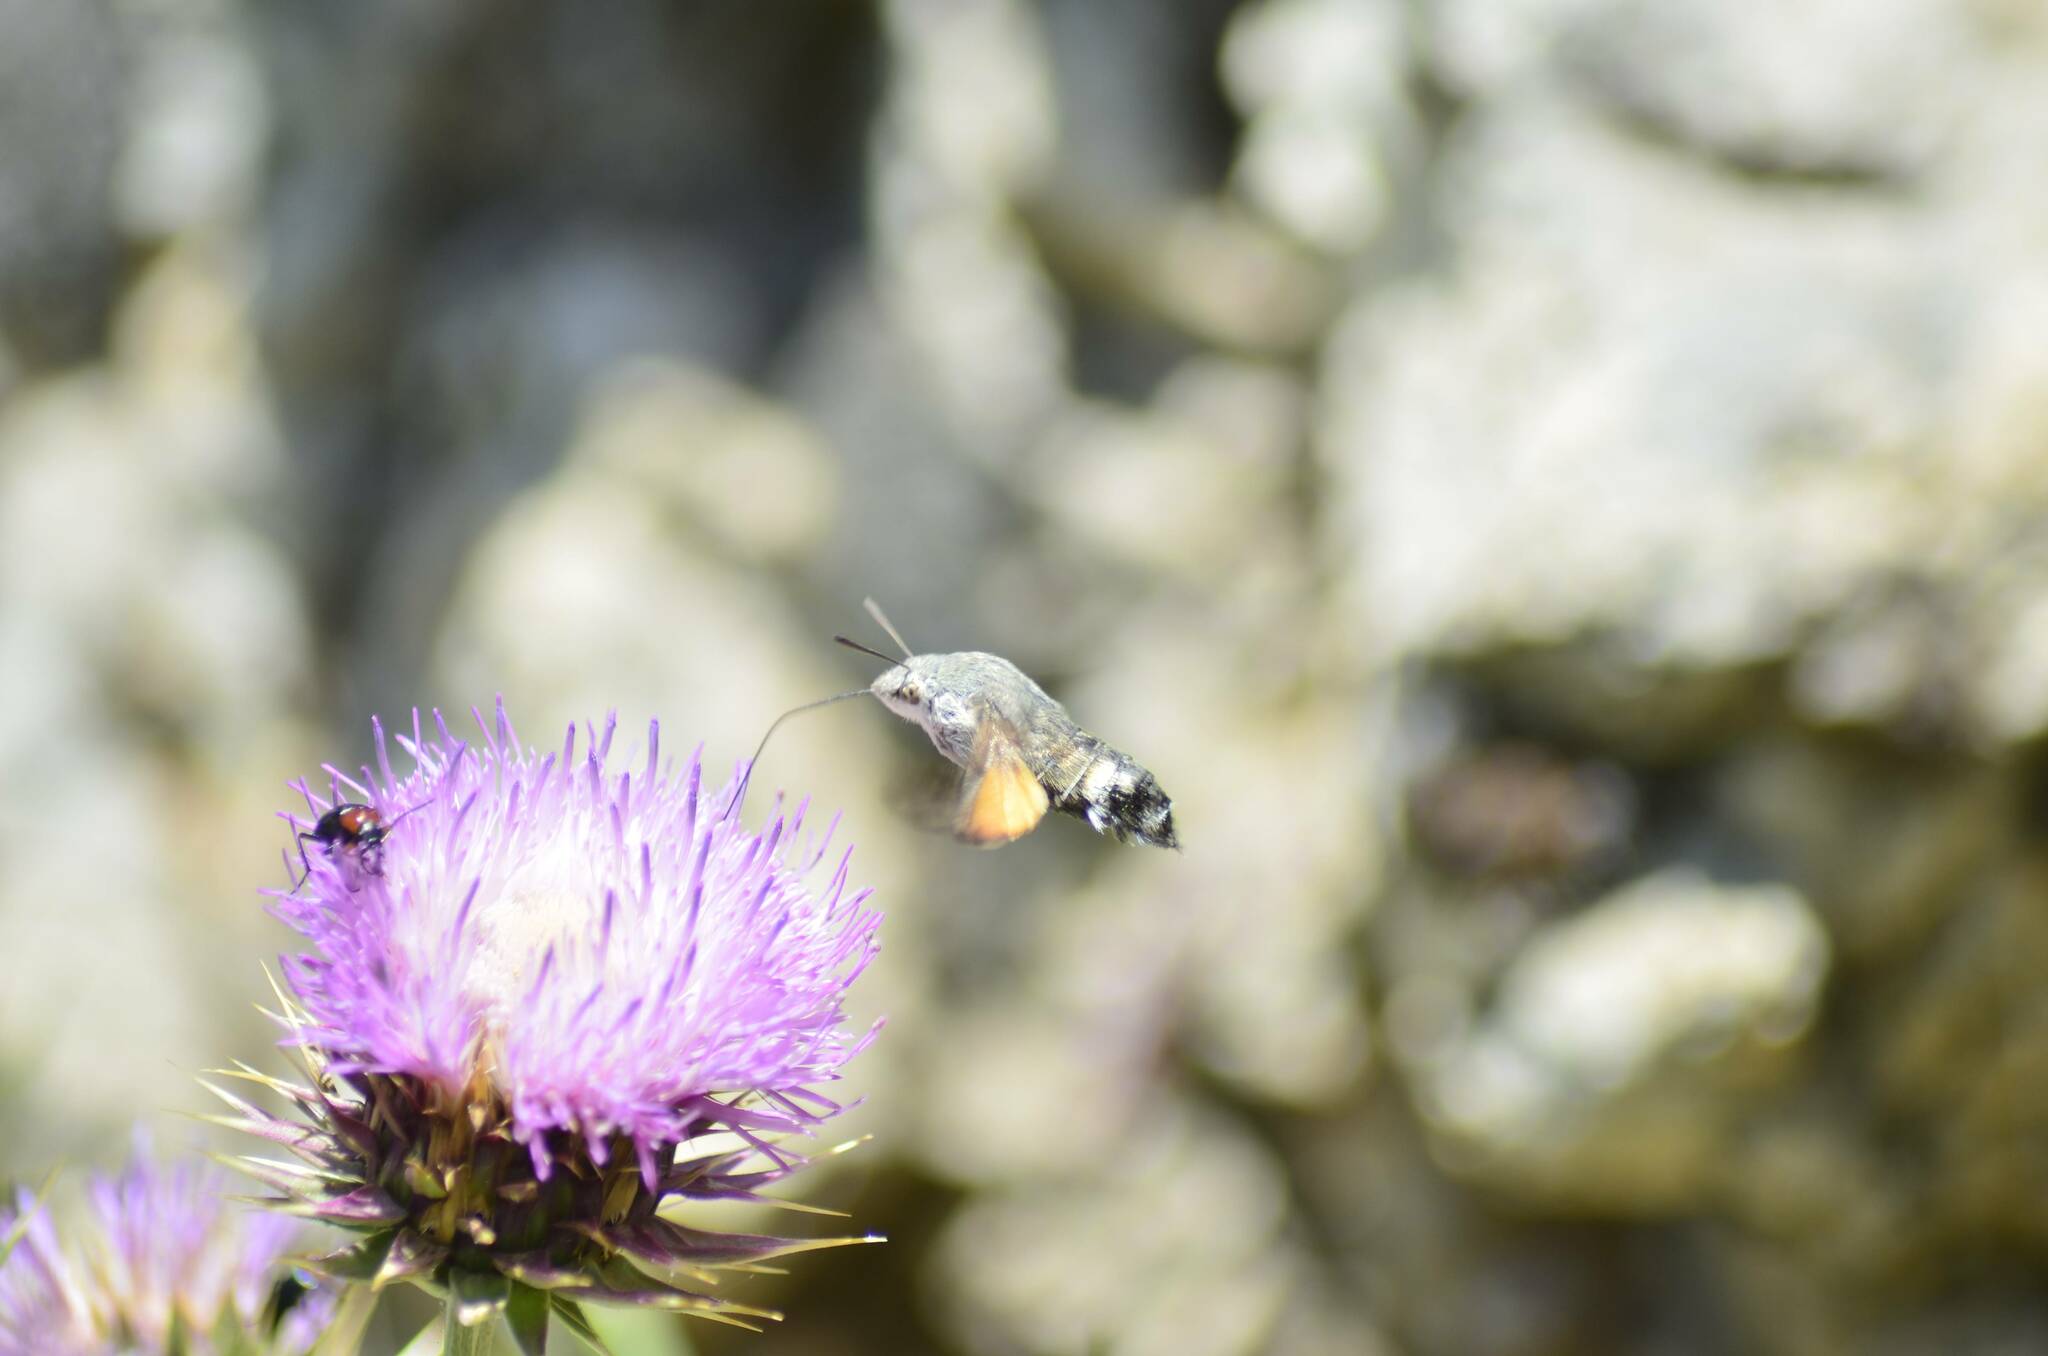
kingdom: Animalia
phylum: Arthropoda
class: Insecta
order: Lepidoptera
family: Sphingidae
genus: Macroglossum
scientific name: Macroglossum stellatarum
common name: Humming-bird hawk-moth
